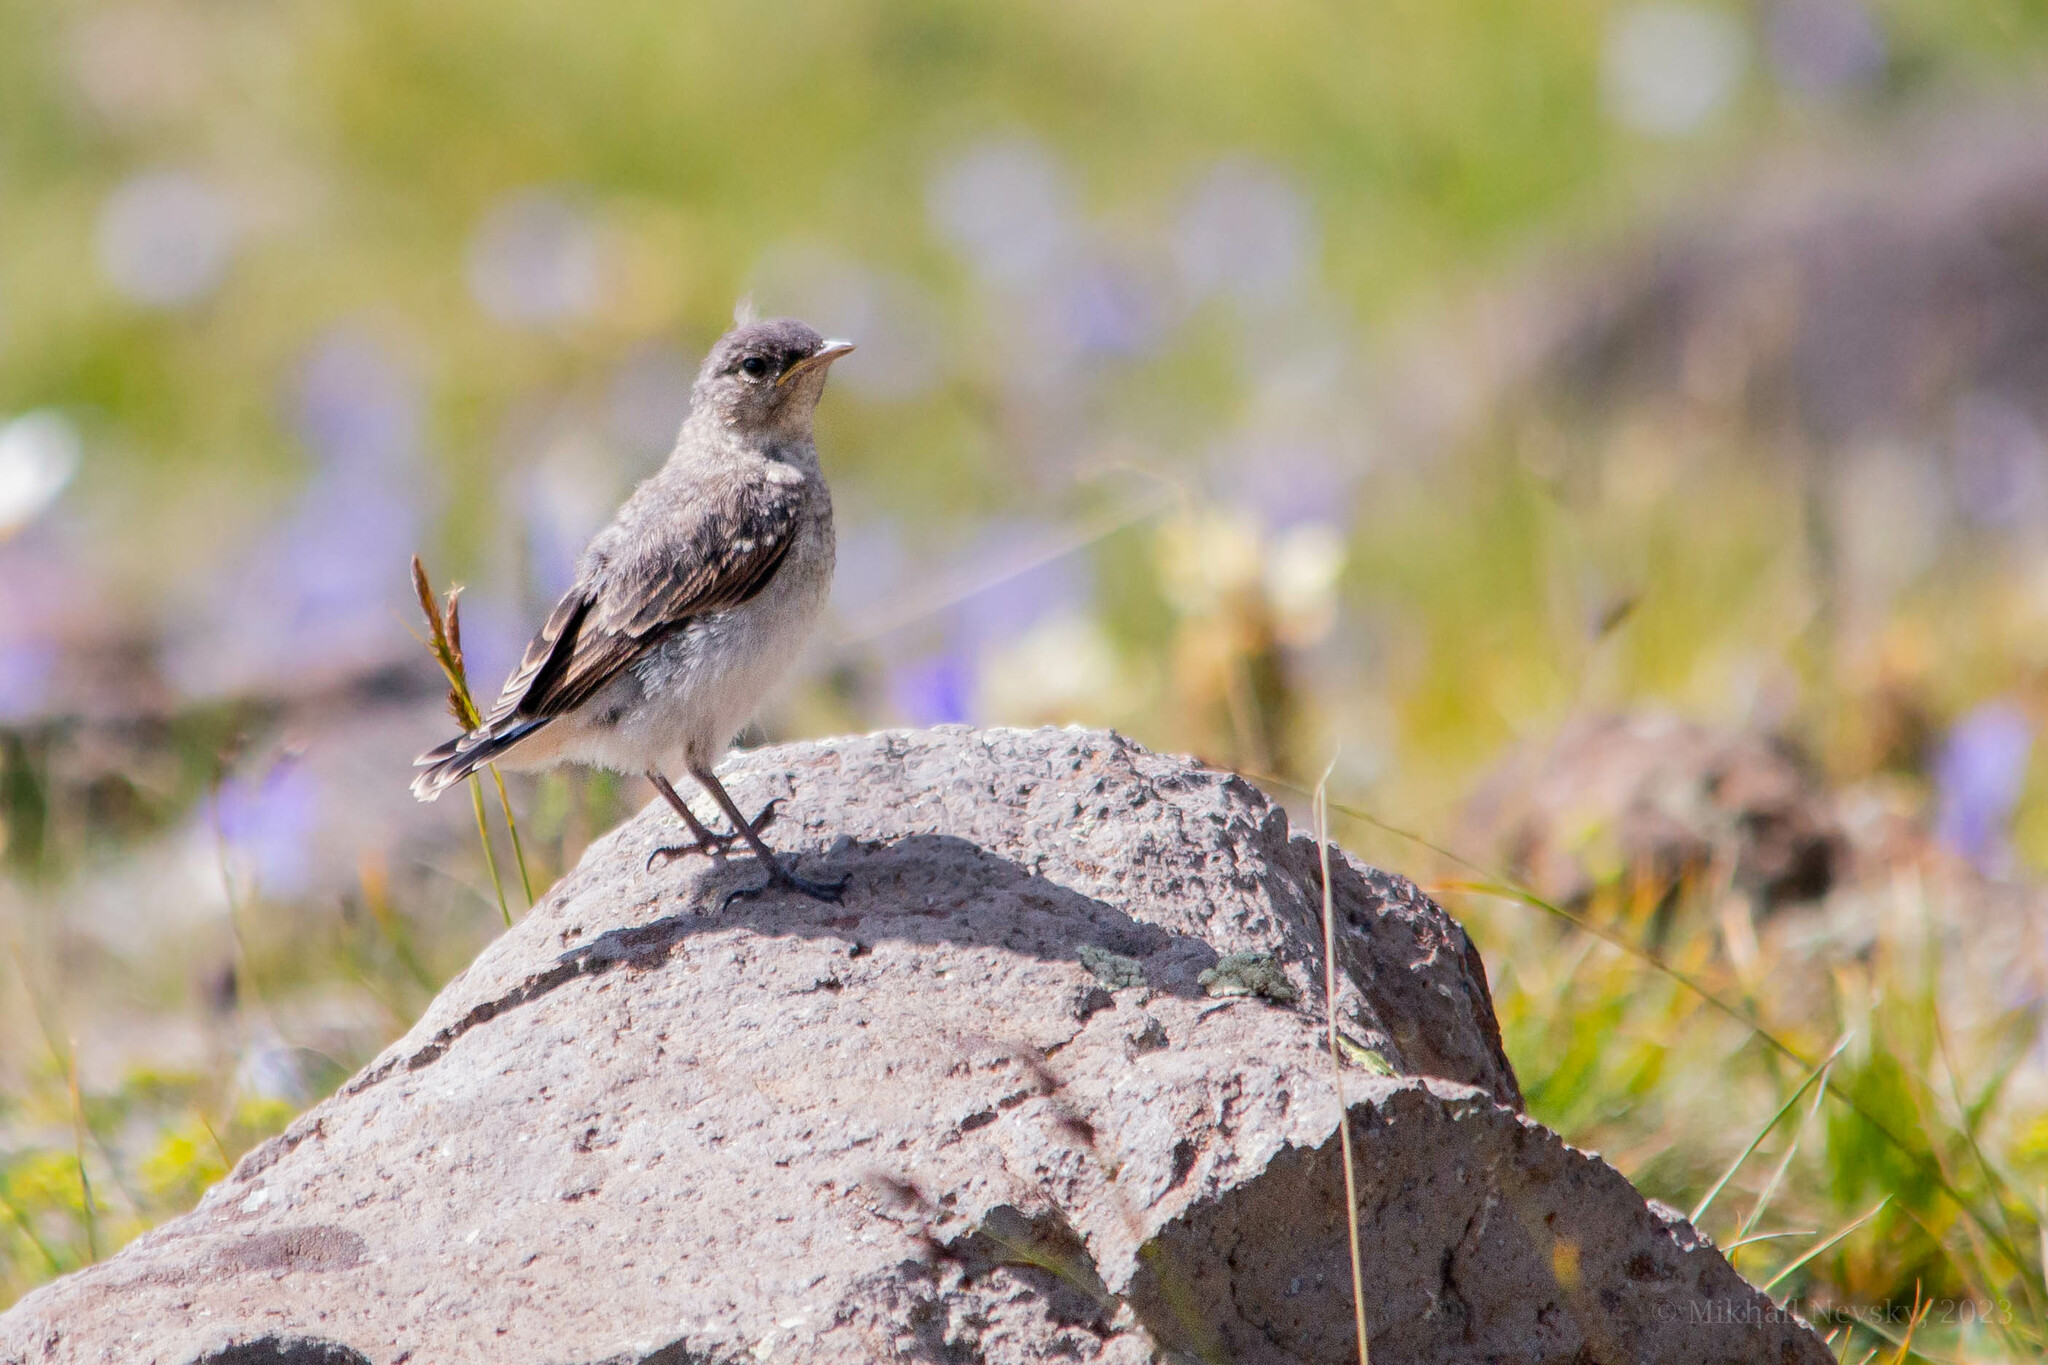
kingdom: Animalia
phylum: Chordata
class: Aves
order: Passeriformes
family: Muscicapidae
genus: Oenanthe
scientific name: Oenanthe oenanthe
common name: Northern wheatear
